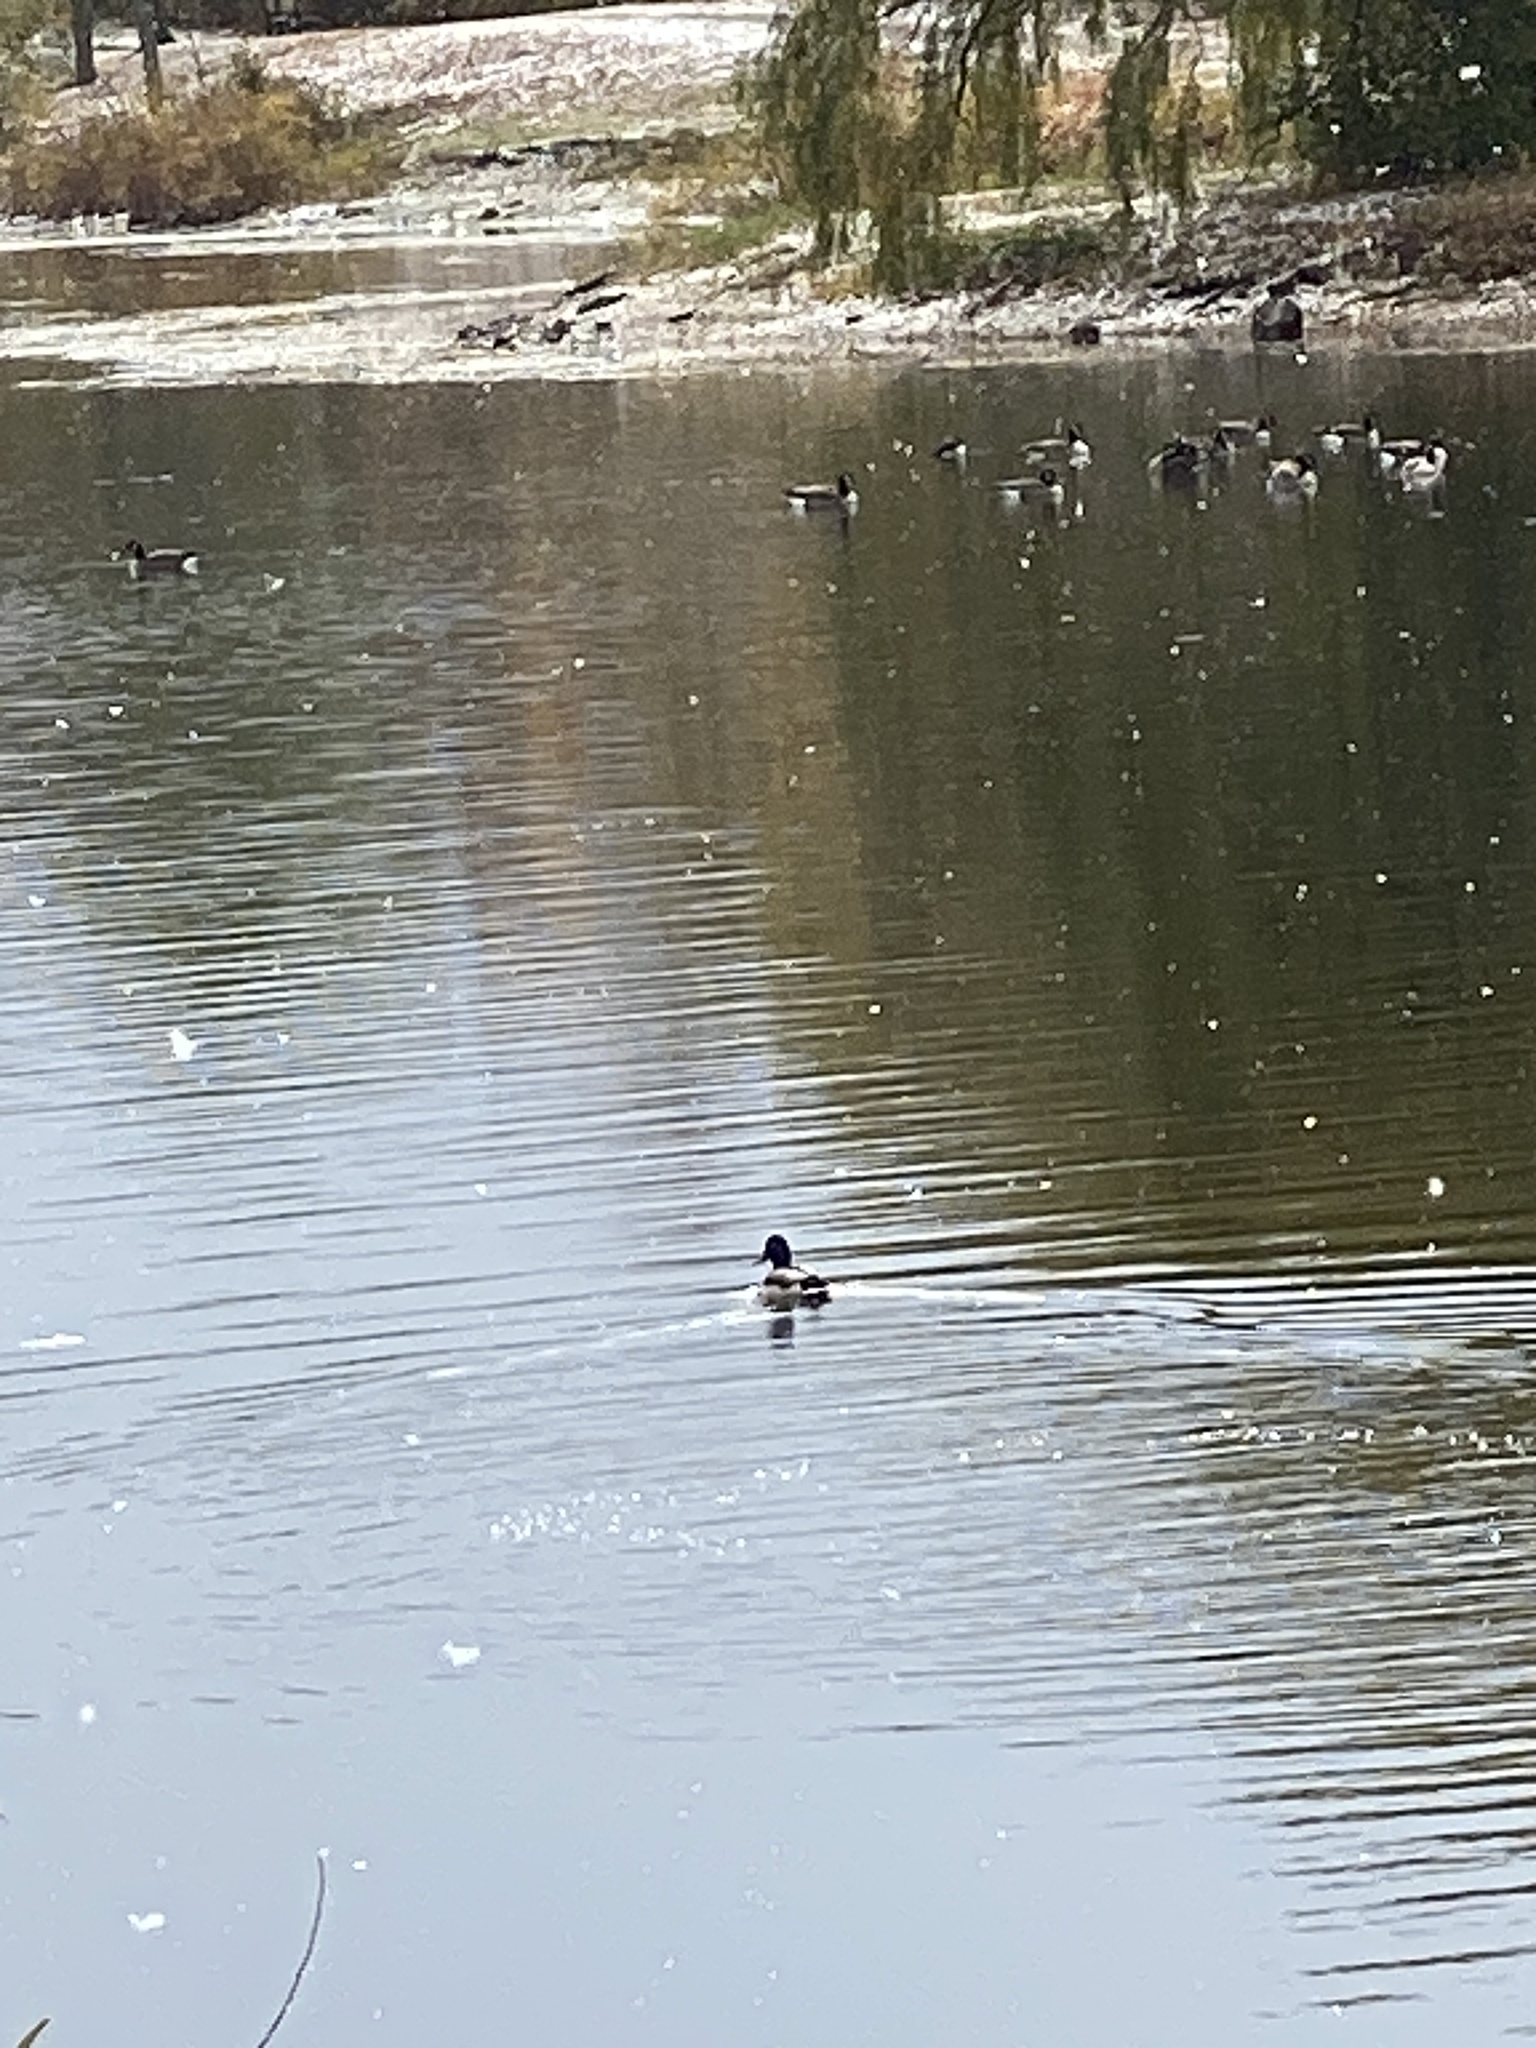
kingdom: Animalia
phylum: Chordata
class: Aves
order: Anseriformes
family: Anatidae
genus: Anas
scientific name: Anas platyrhynchos
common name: Mallard
